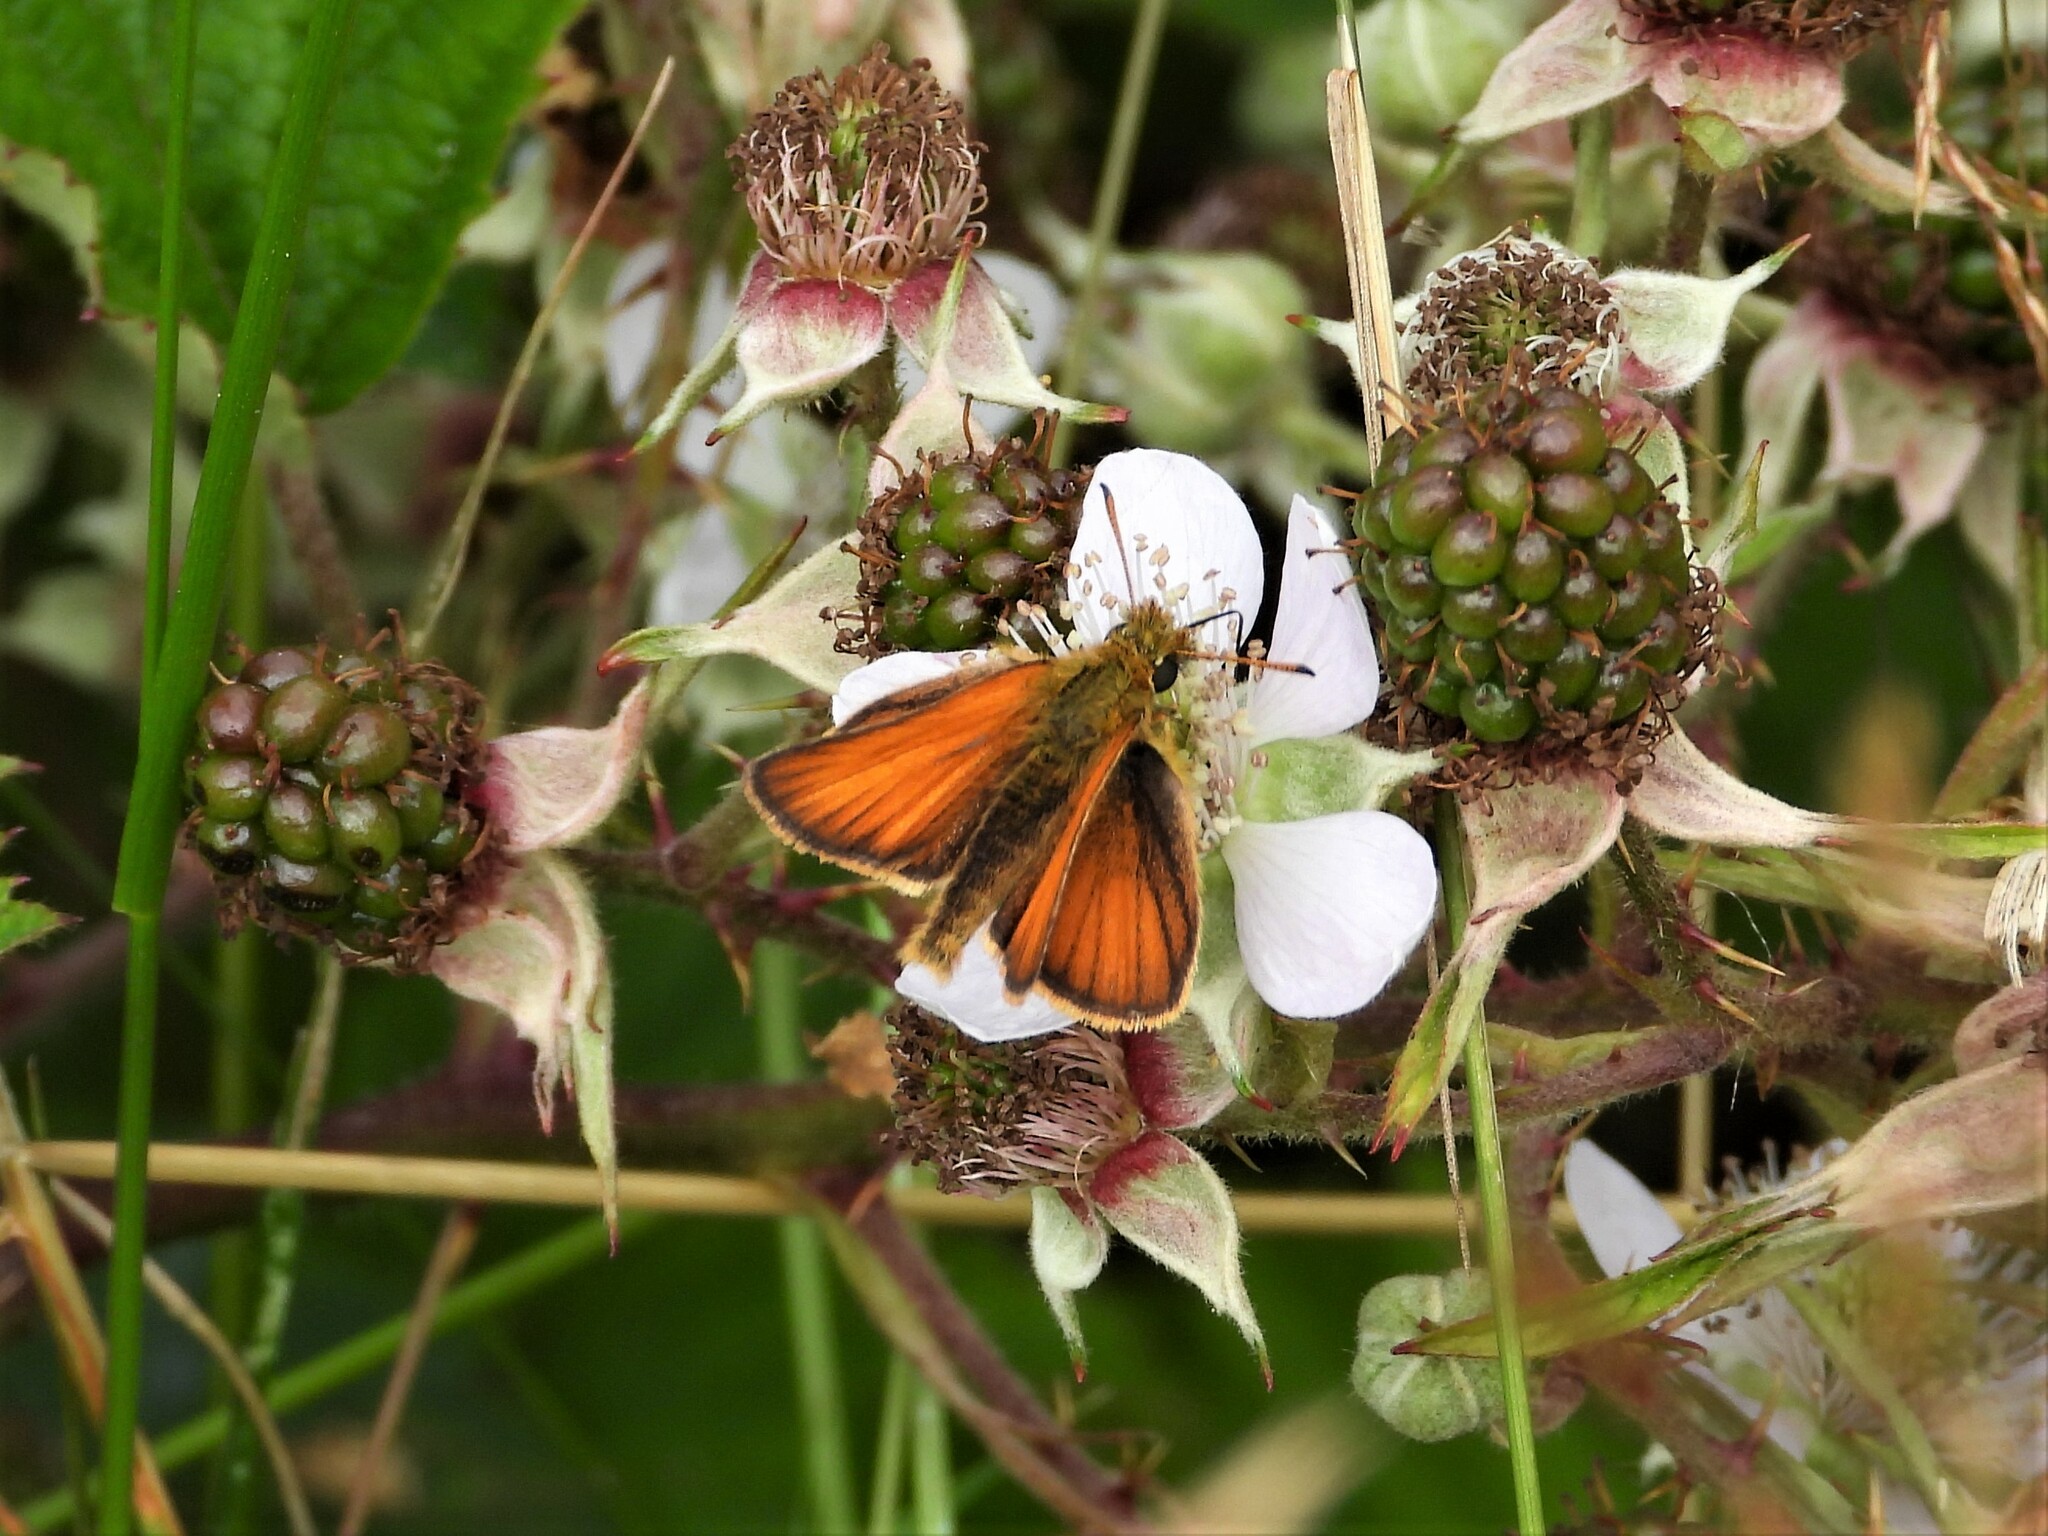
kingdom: Animalia
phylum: Arthropoda
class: Insecta
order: Lepidoptera
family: Hesperiidae
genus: Thymelicus
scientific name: Thymelicus lineola
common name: Essex skipper
